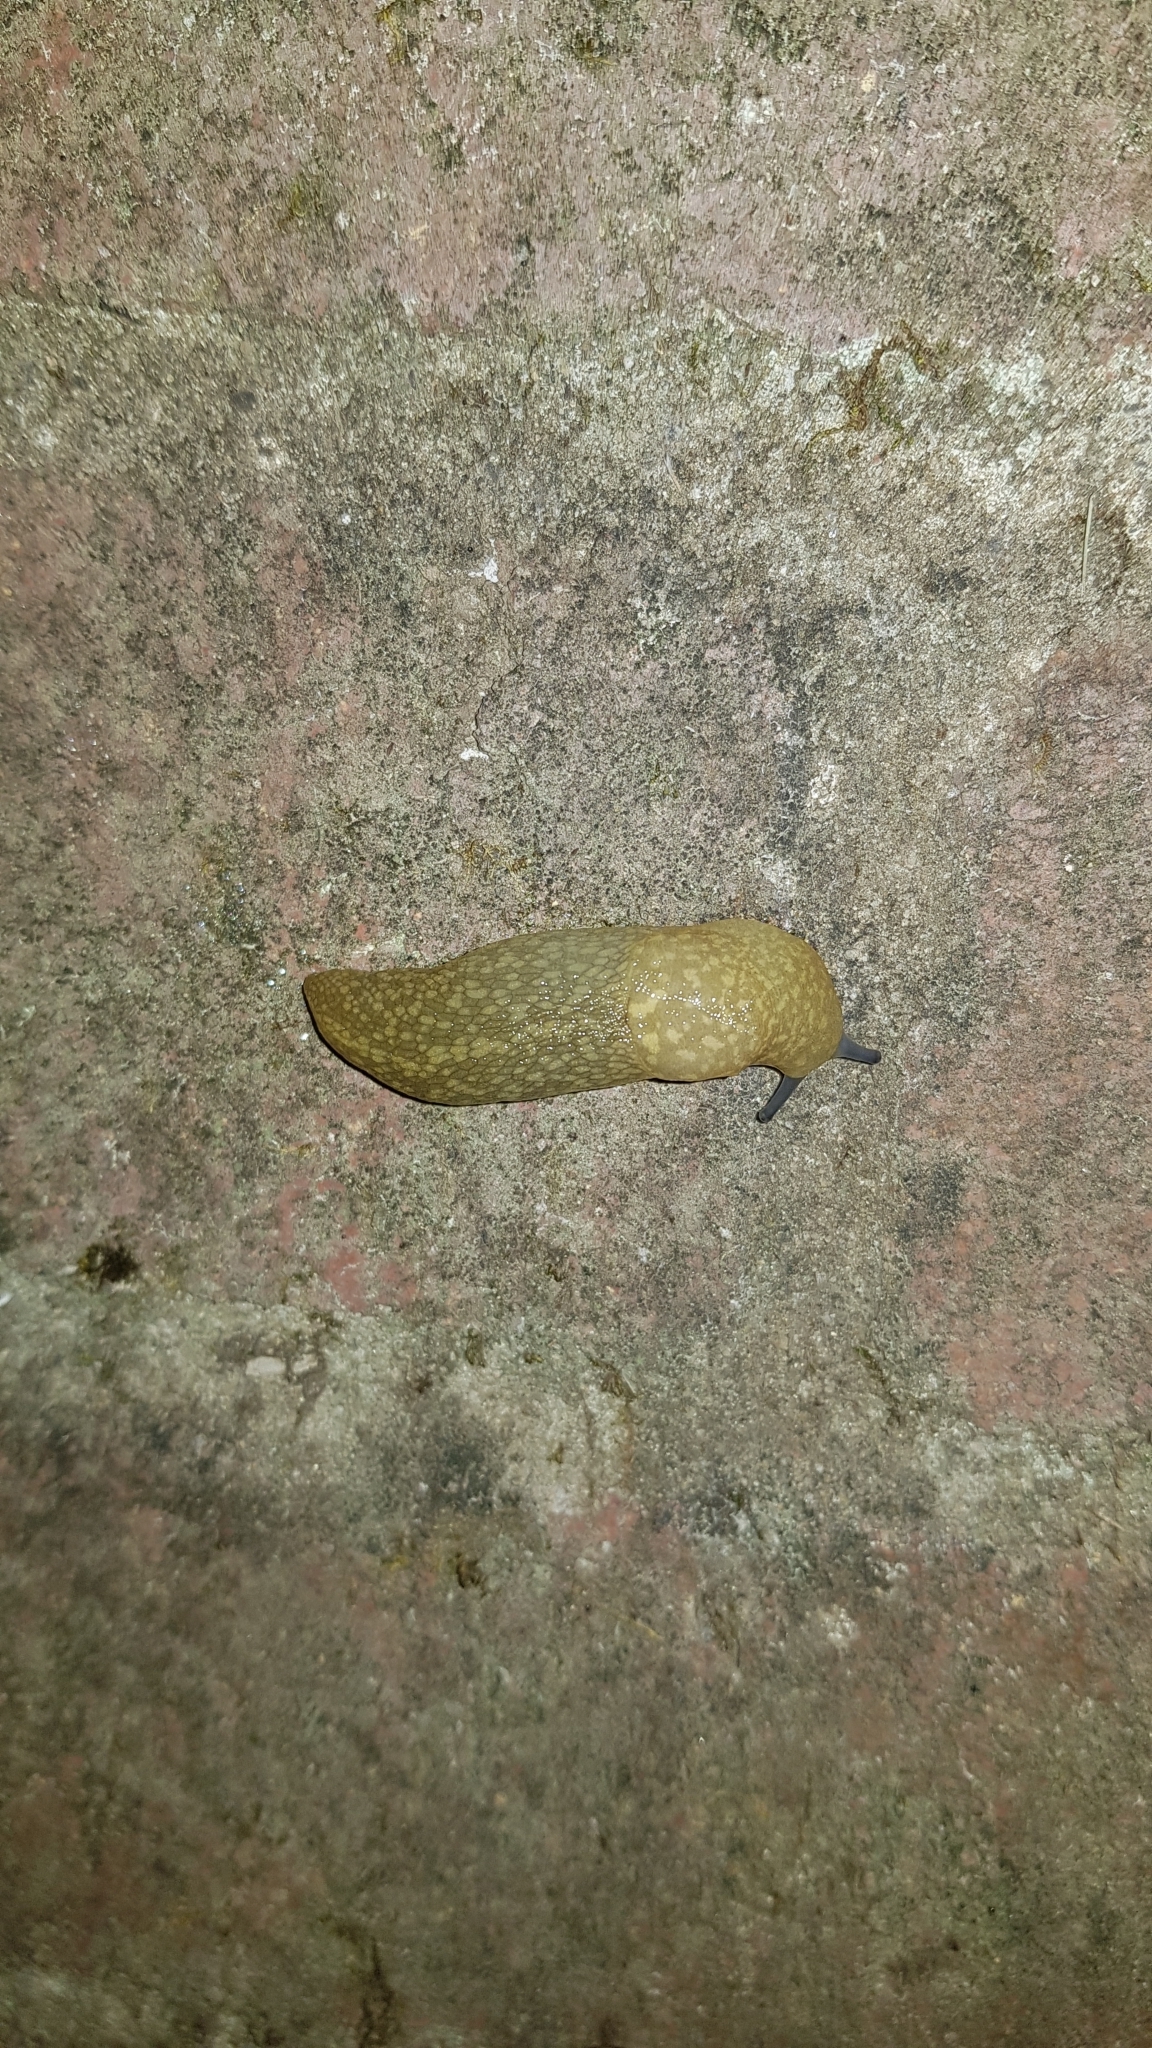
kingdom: Animalia
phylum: Mollusca
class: Gastropoda
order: Stylommatophora
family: Limacidae
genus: Limacus
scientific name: Limacus flavus
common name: Yellow gardenslug
